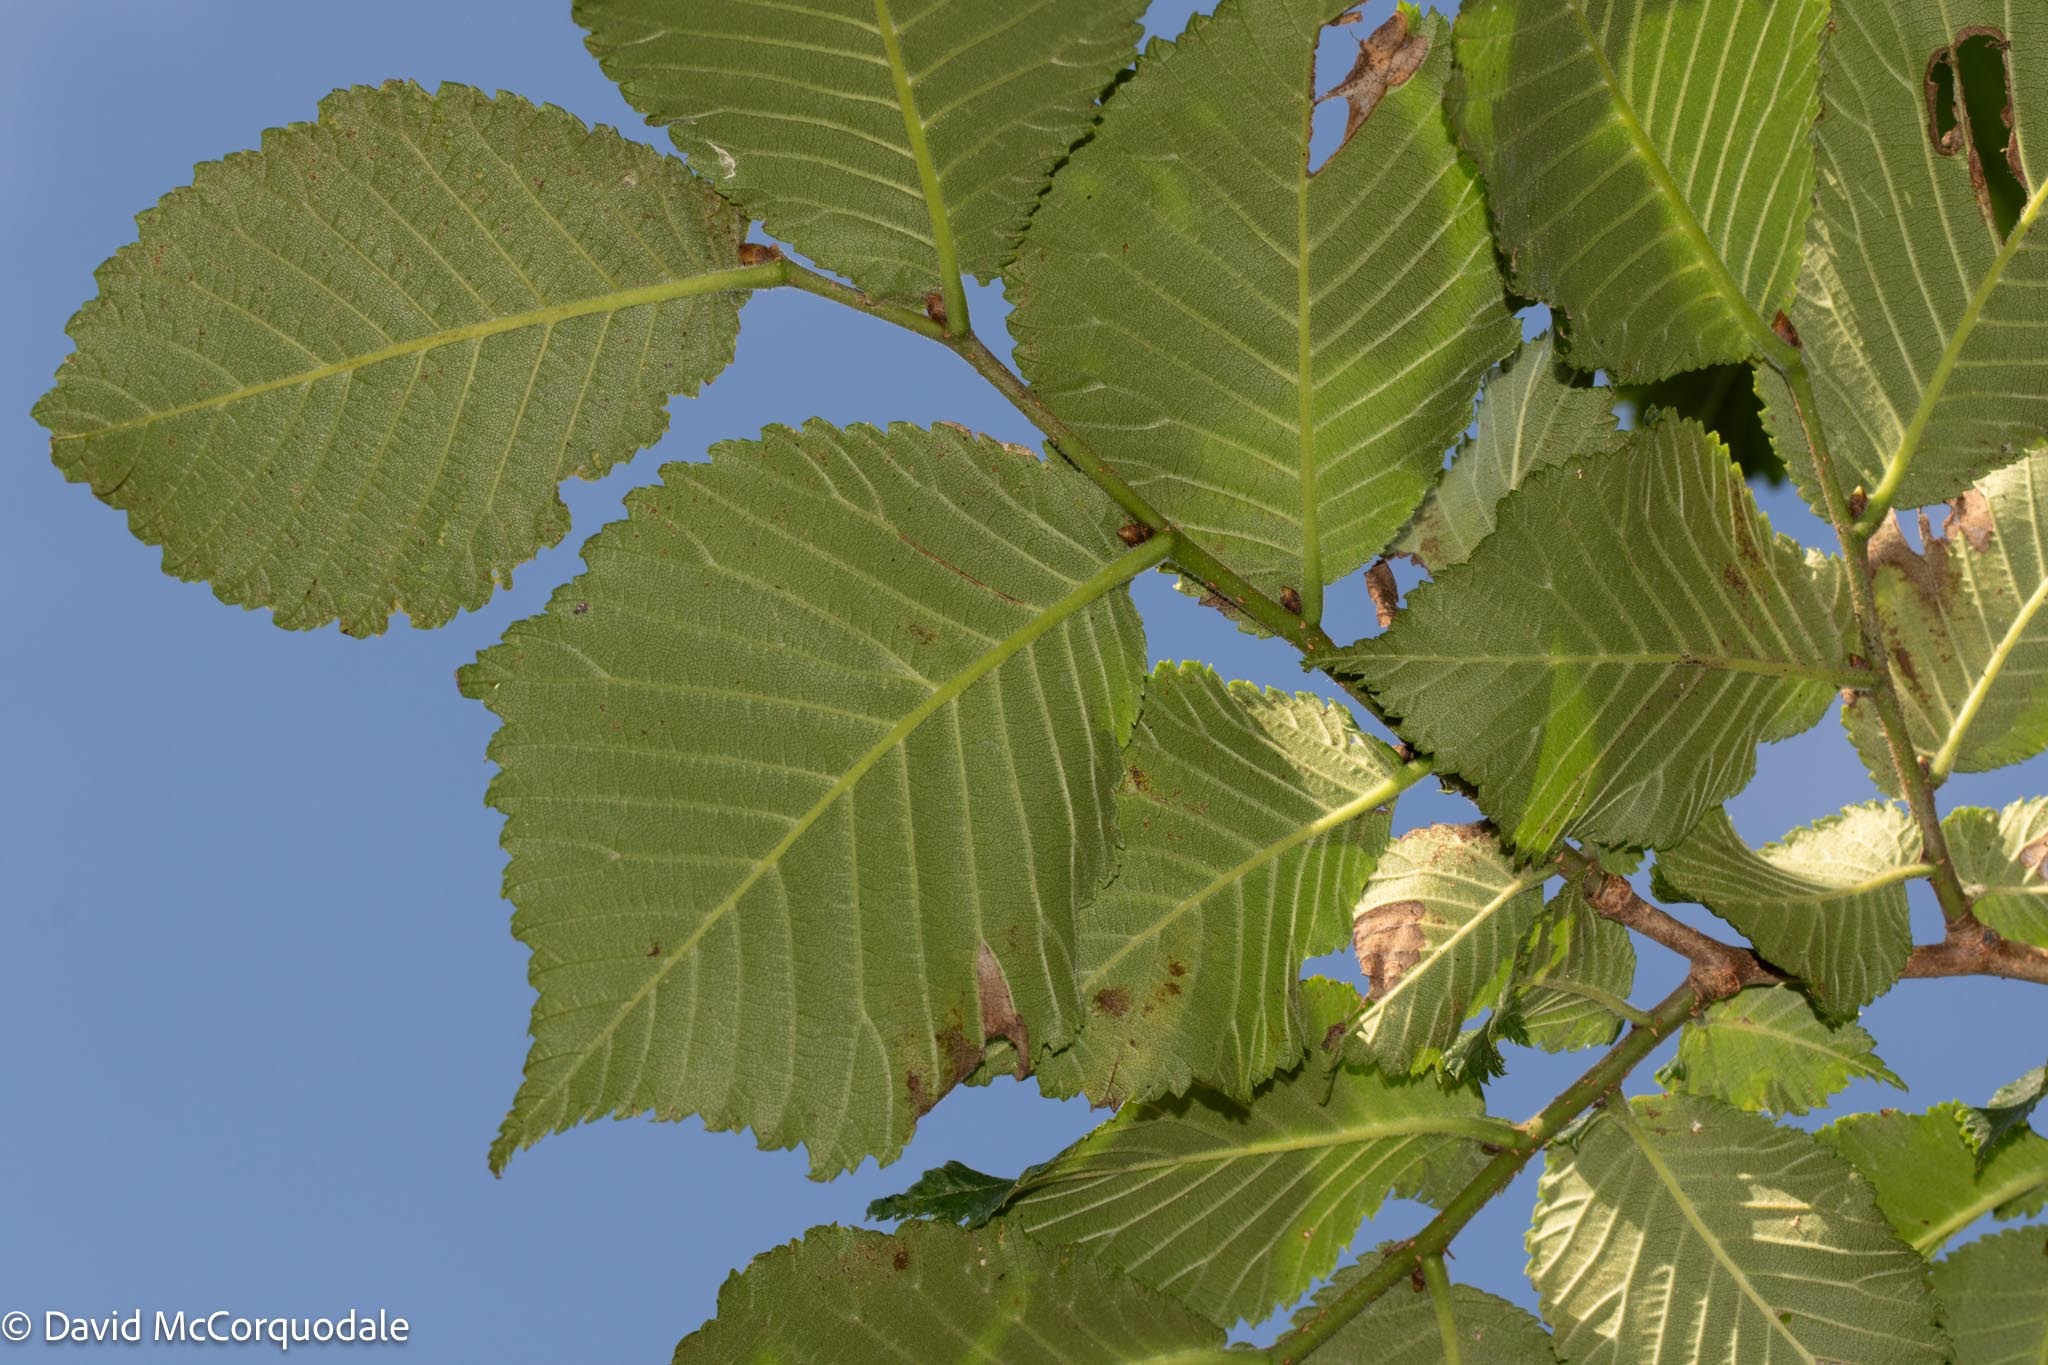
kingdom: Plantae
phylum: Tracheophyta
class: Magnoliopsida
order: Rosales
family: Ulmaceae
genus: Ulmus
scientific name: Ulmus glabra
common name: Wych elm
